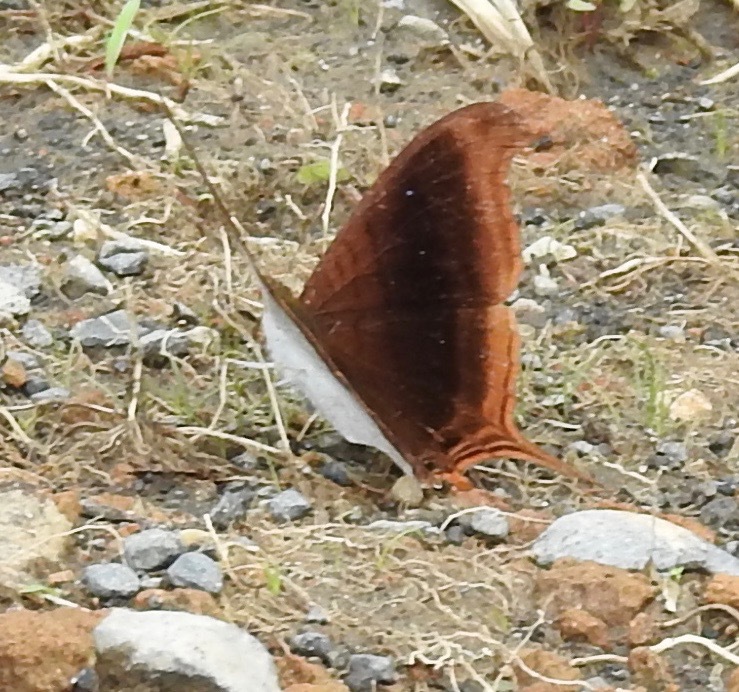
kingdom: Animalia
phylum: Arthropoda
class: Insecta
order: Lepidoptera
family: Nymphalidae
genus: Marpesia
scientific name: Marpesia zerynthia
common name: Waiter daggerwing
